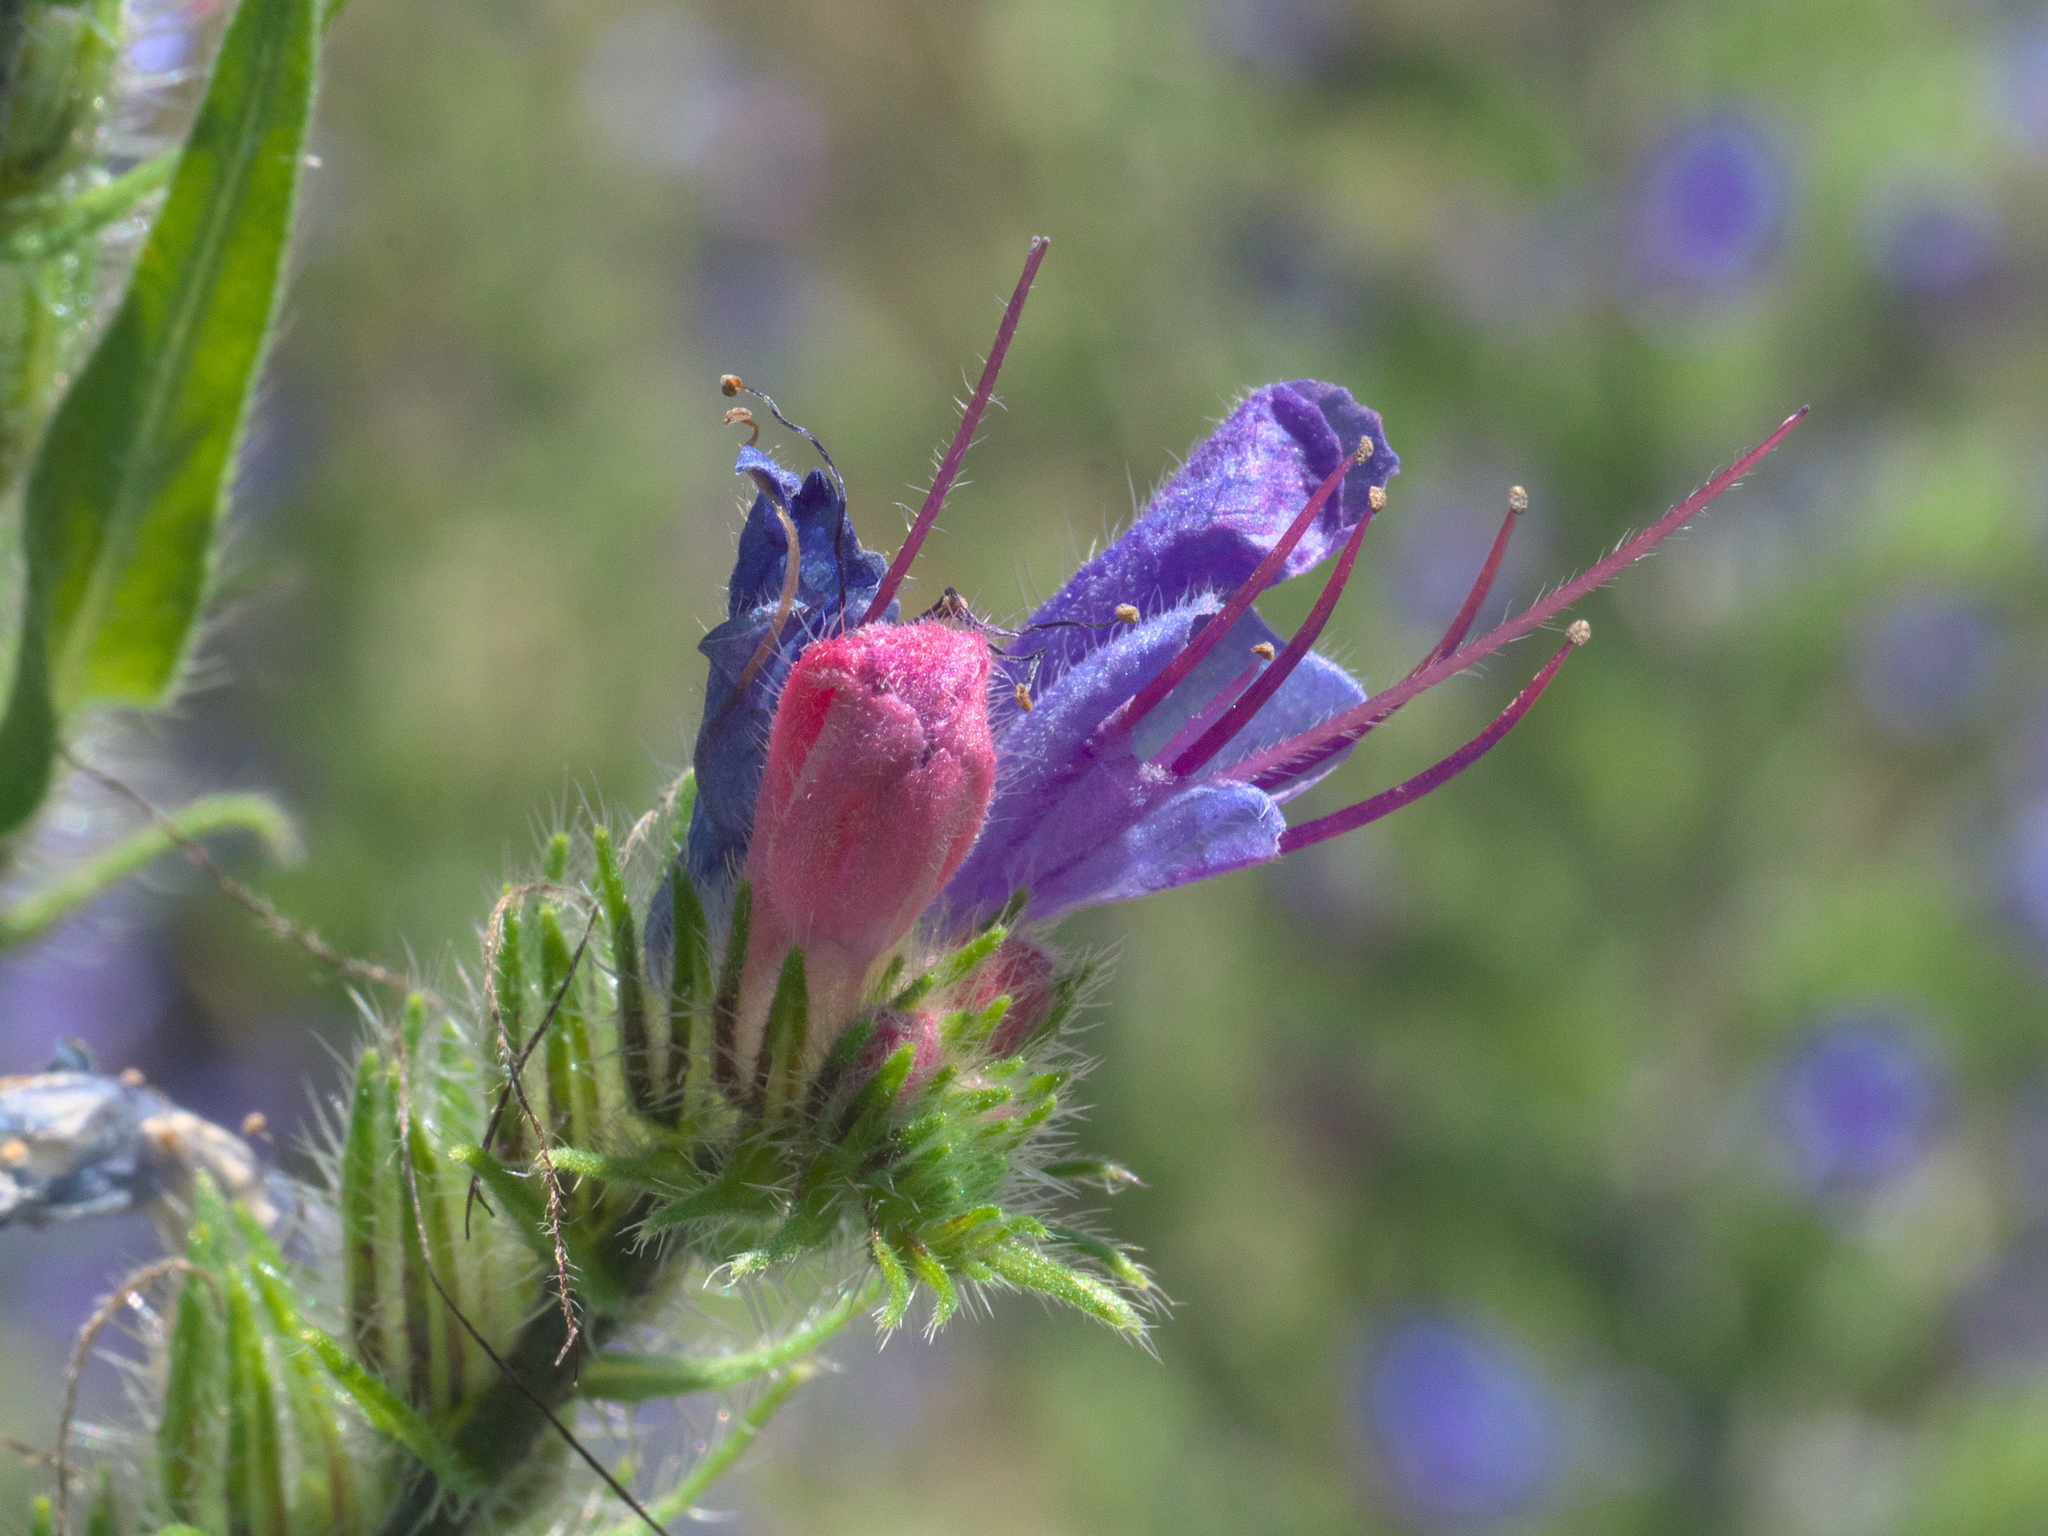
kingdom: Plantae
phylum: Tracheophyta
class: Magnoliopsida
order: Boraginales
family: Boraginaceae
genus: Echium
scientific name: Echium vulgare
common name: Common viper's bugloss
